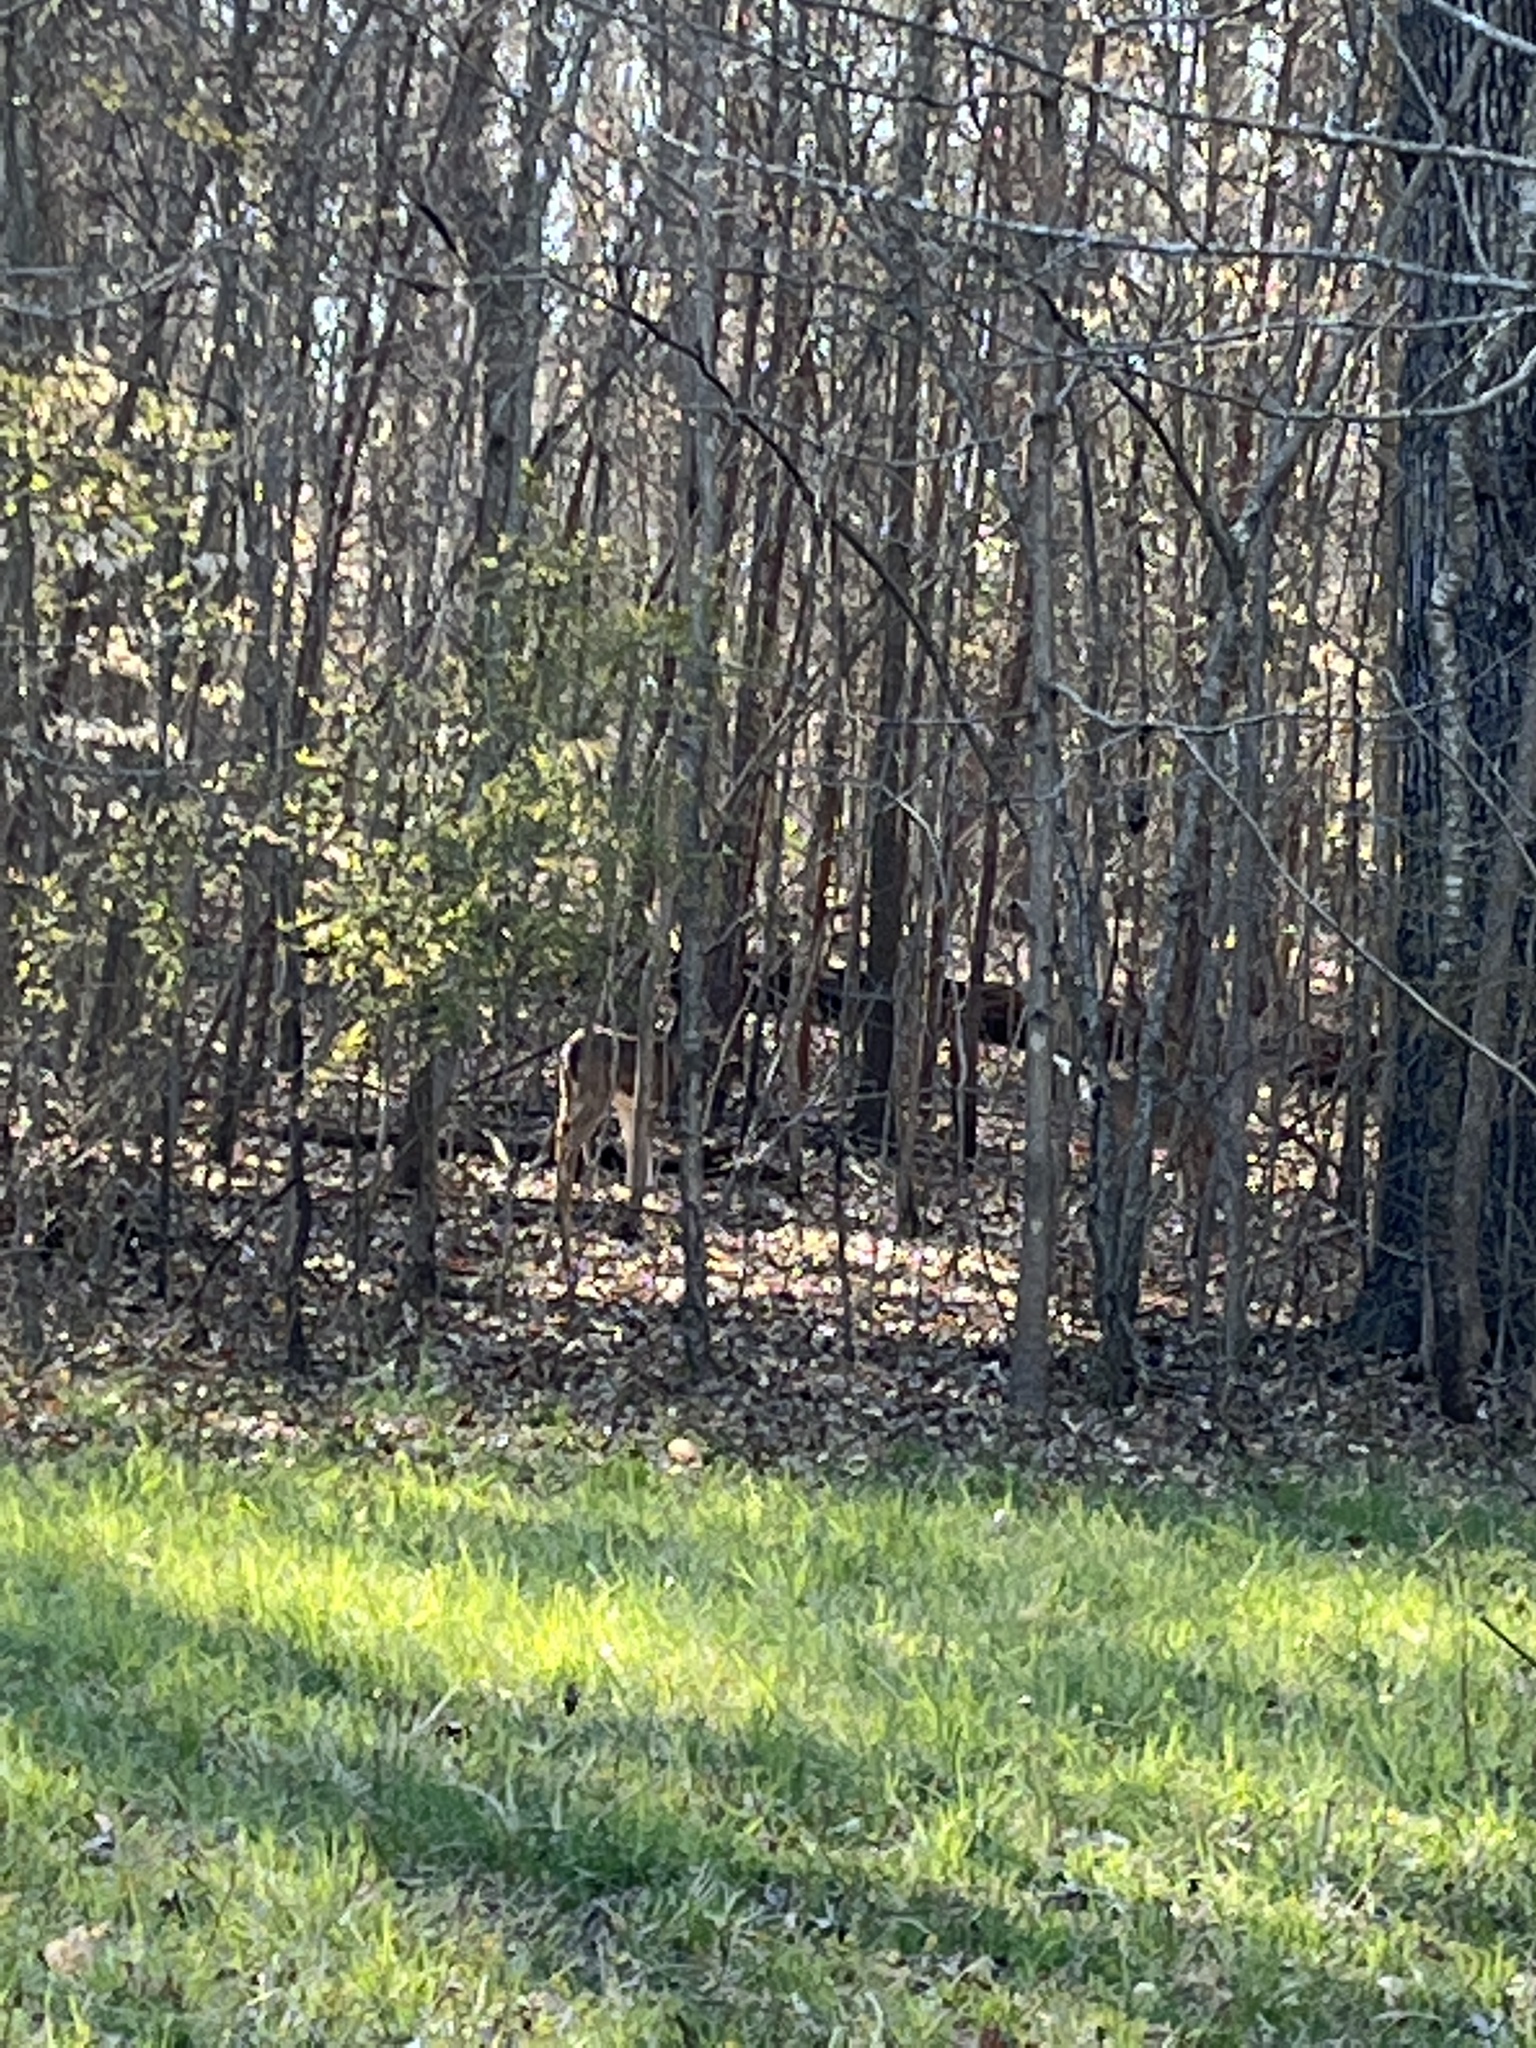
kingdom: Animalia
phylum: Chordata
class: Mammalia
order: Artiodactyla
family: Cervidae
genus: Odocoileus
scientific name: Odocoileus virginianus
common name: White-tailed deer
